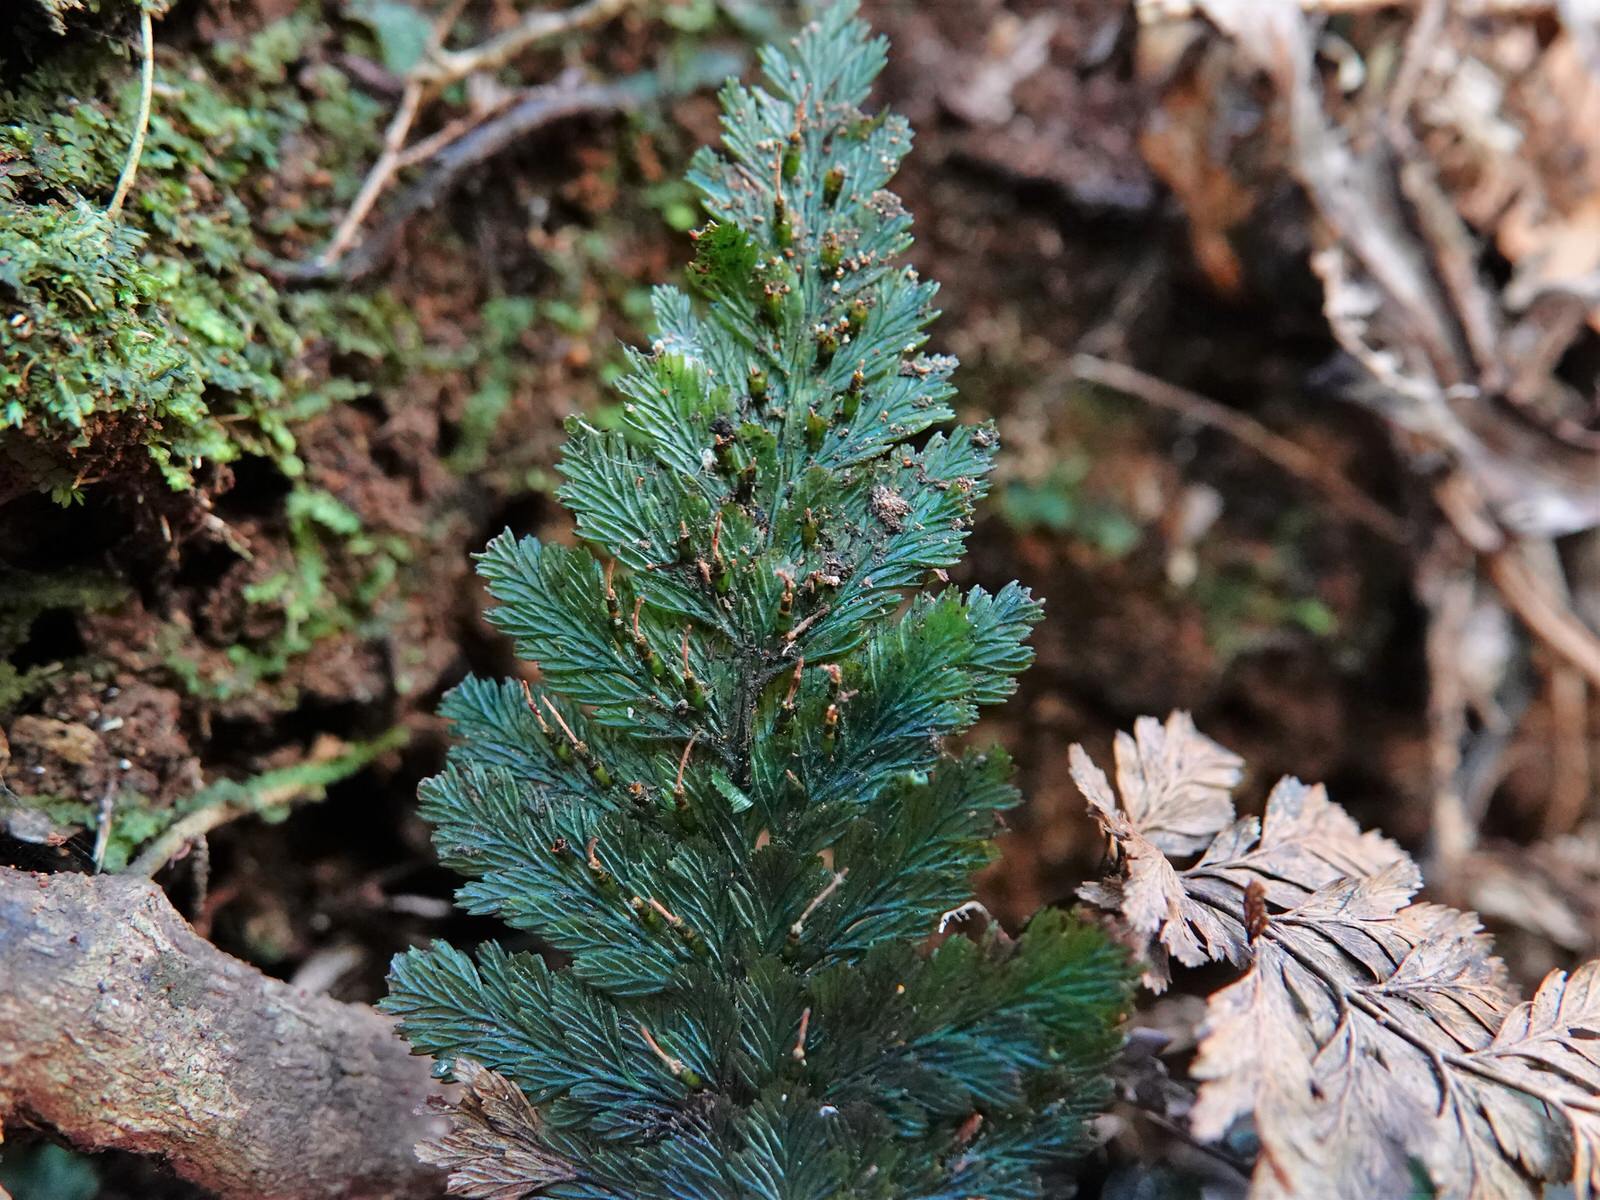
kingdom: Plantae
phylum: Tracheophyta
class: Polypodiopsida
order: Hymenophyllales
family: Hymenophyllaceae
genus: Abrodictyum
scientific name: Abrodictyum elongatum
